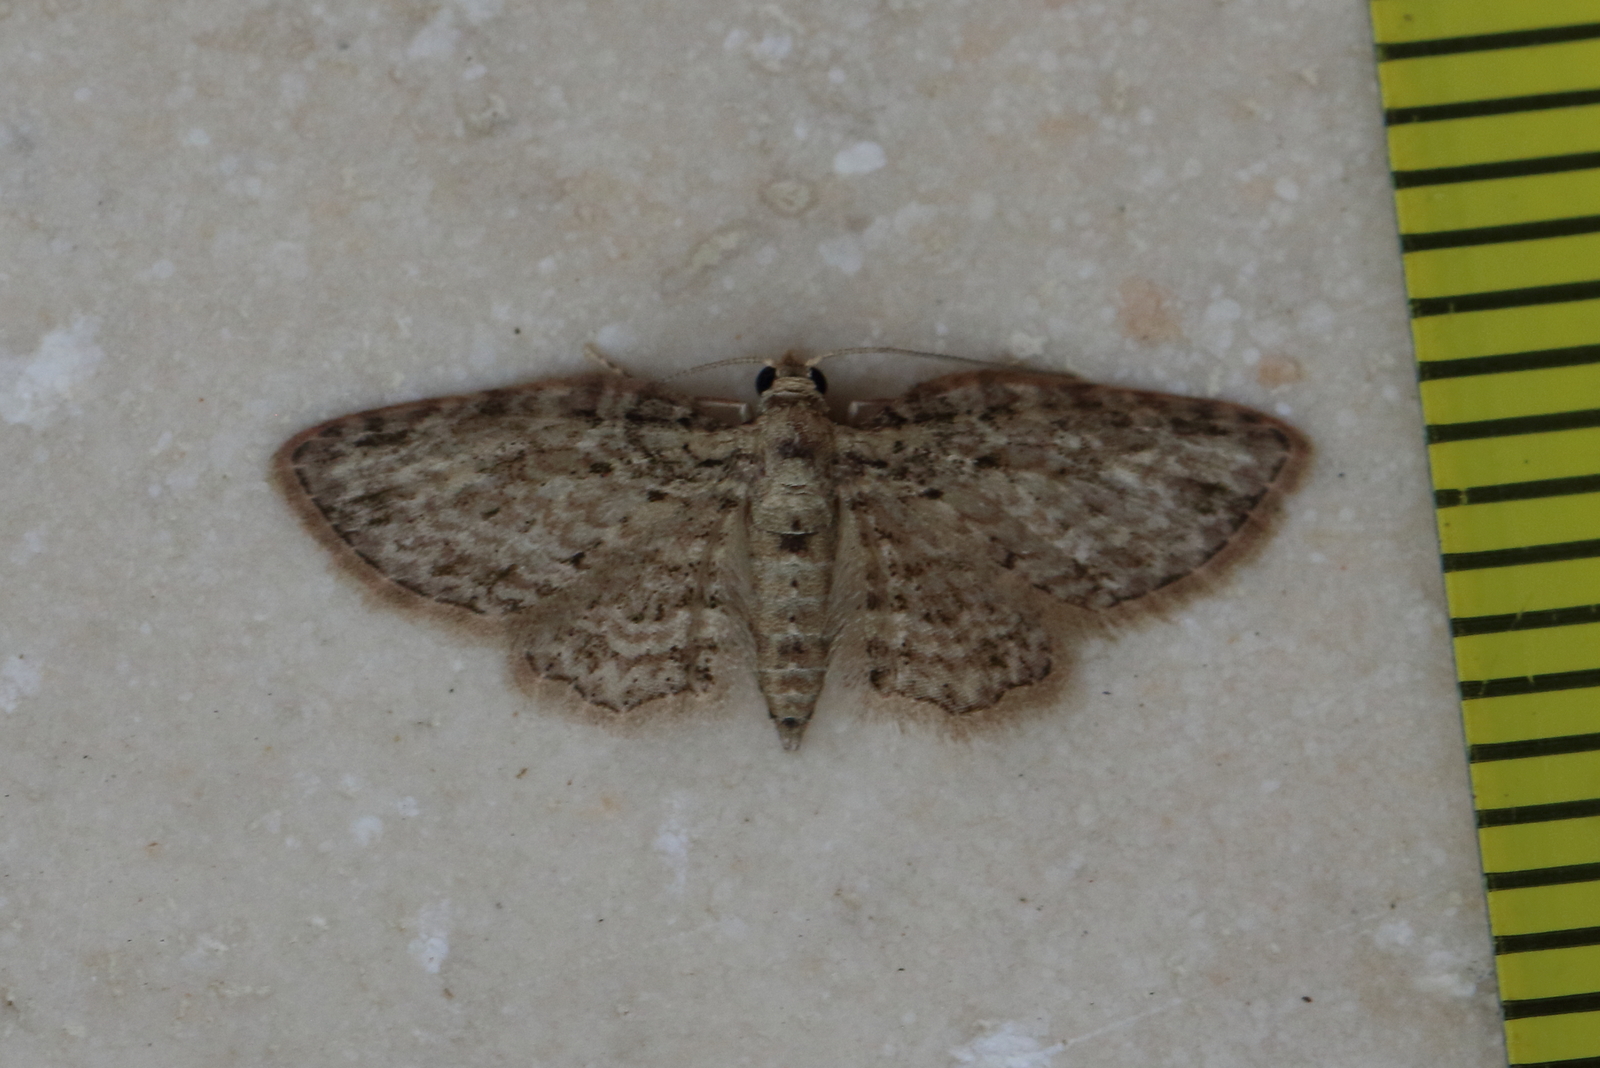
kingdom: Animalia
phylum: Arthropoda
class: Insecta
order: Lepidoptera
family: Geometridae
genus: Chloroclystis
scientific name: Chloroclystis pyrrholopha
